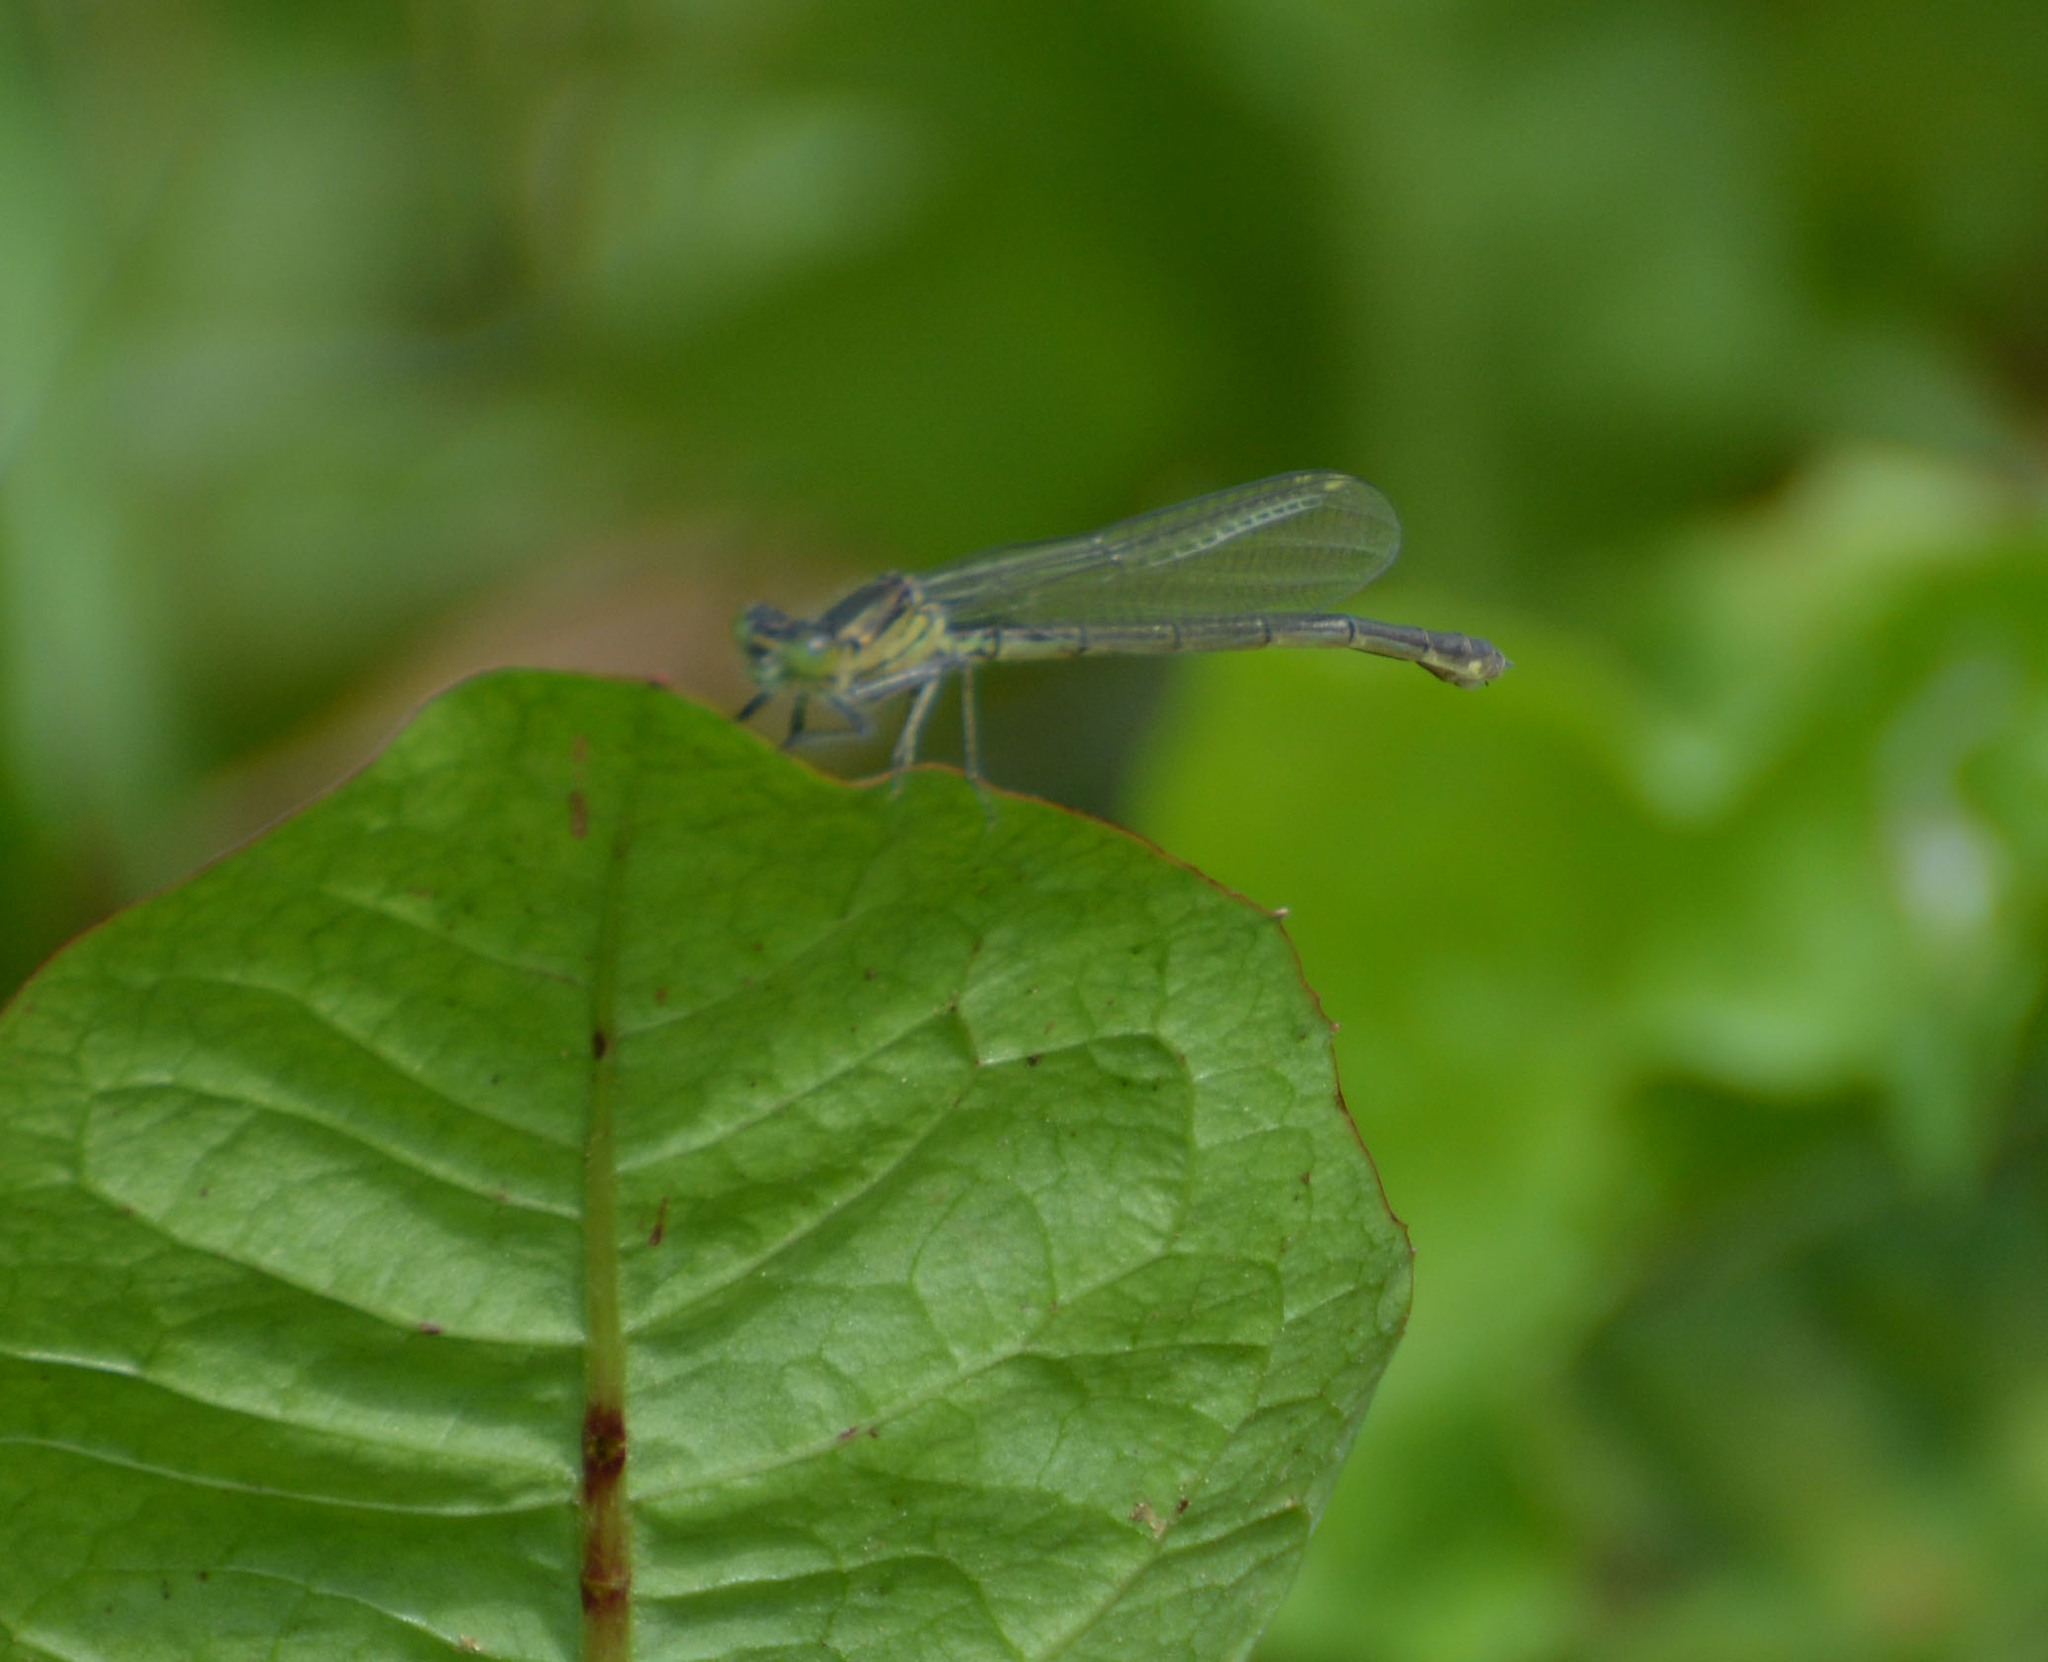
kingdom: Animalia
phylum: Arthropoda
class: Insecta
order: Odonata
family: Coenagrionidae
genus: Erythromma
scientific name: Erythromma najas
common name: Red-eyed damselfly
